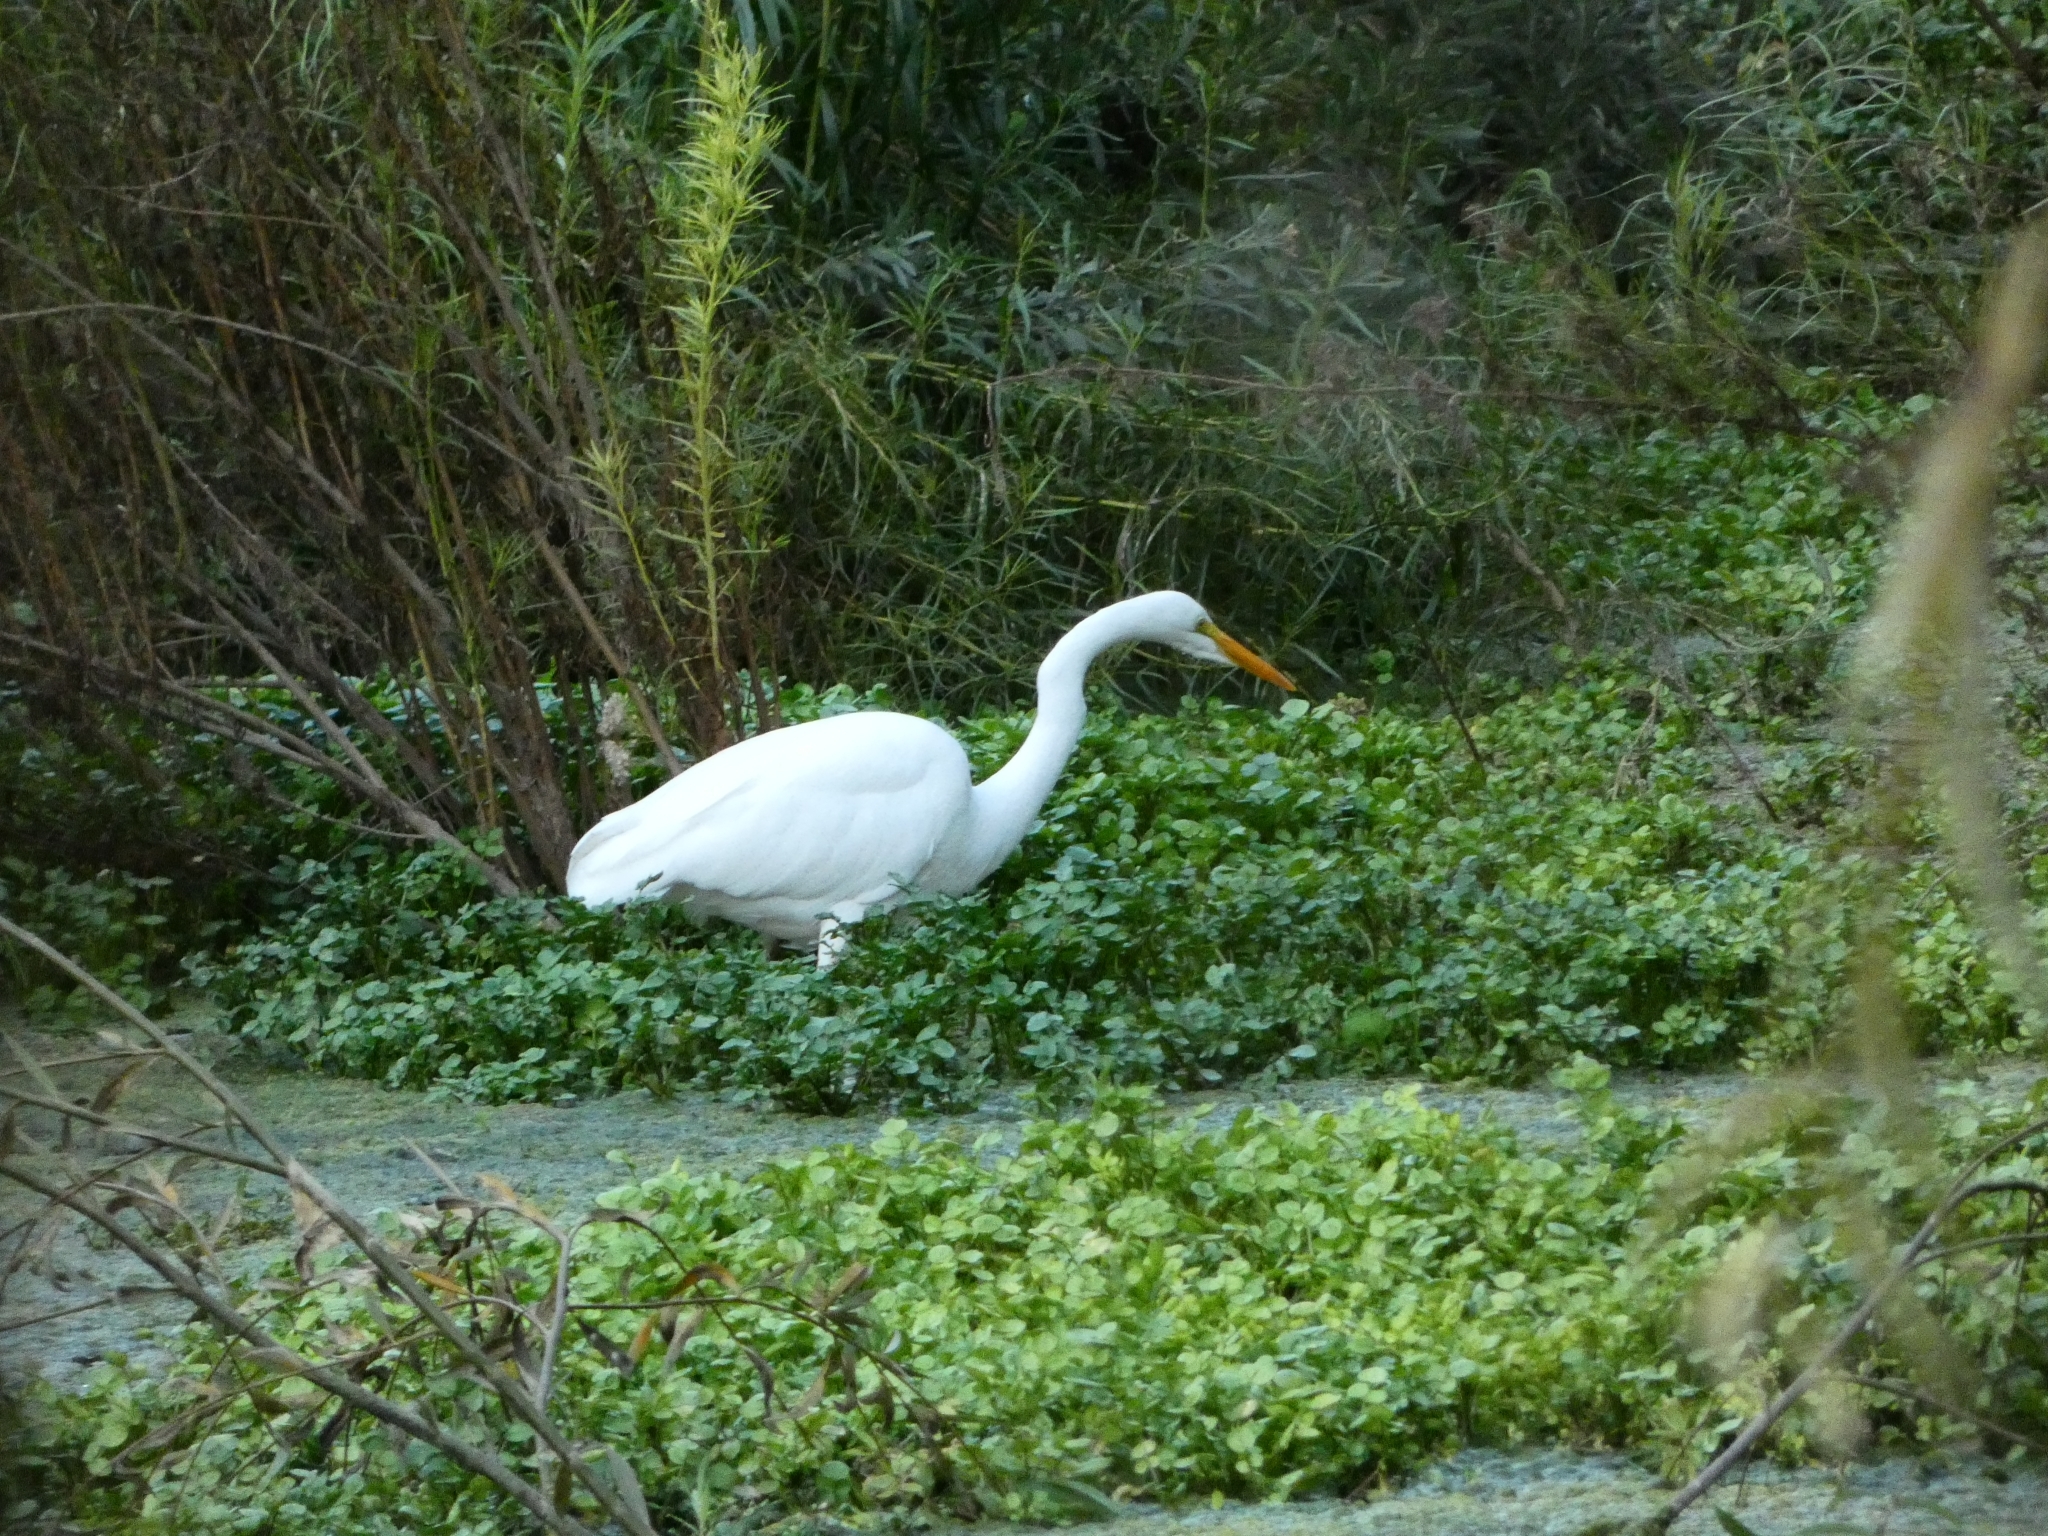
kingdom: Animalia
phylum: Chordata
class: Aves
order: Pelecaniformes
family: Ardeidae
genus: Ardea
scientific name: Ardea alba
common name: Great egret
